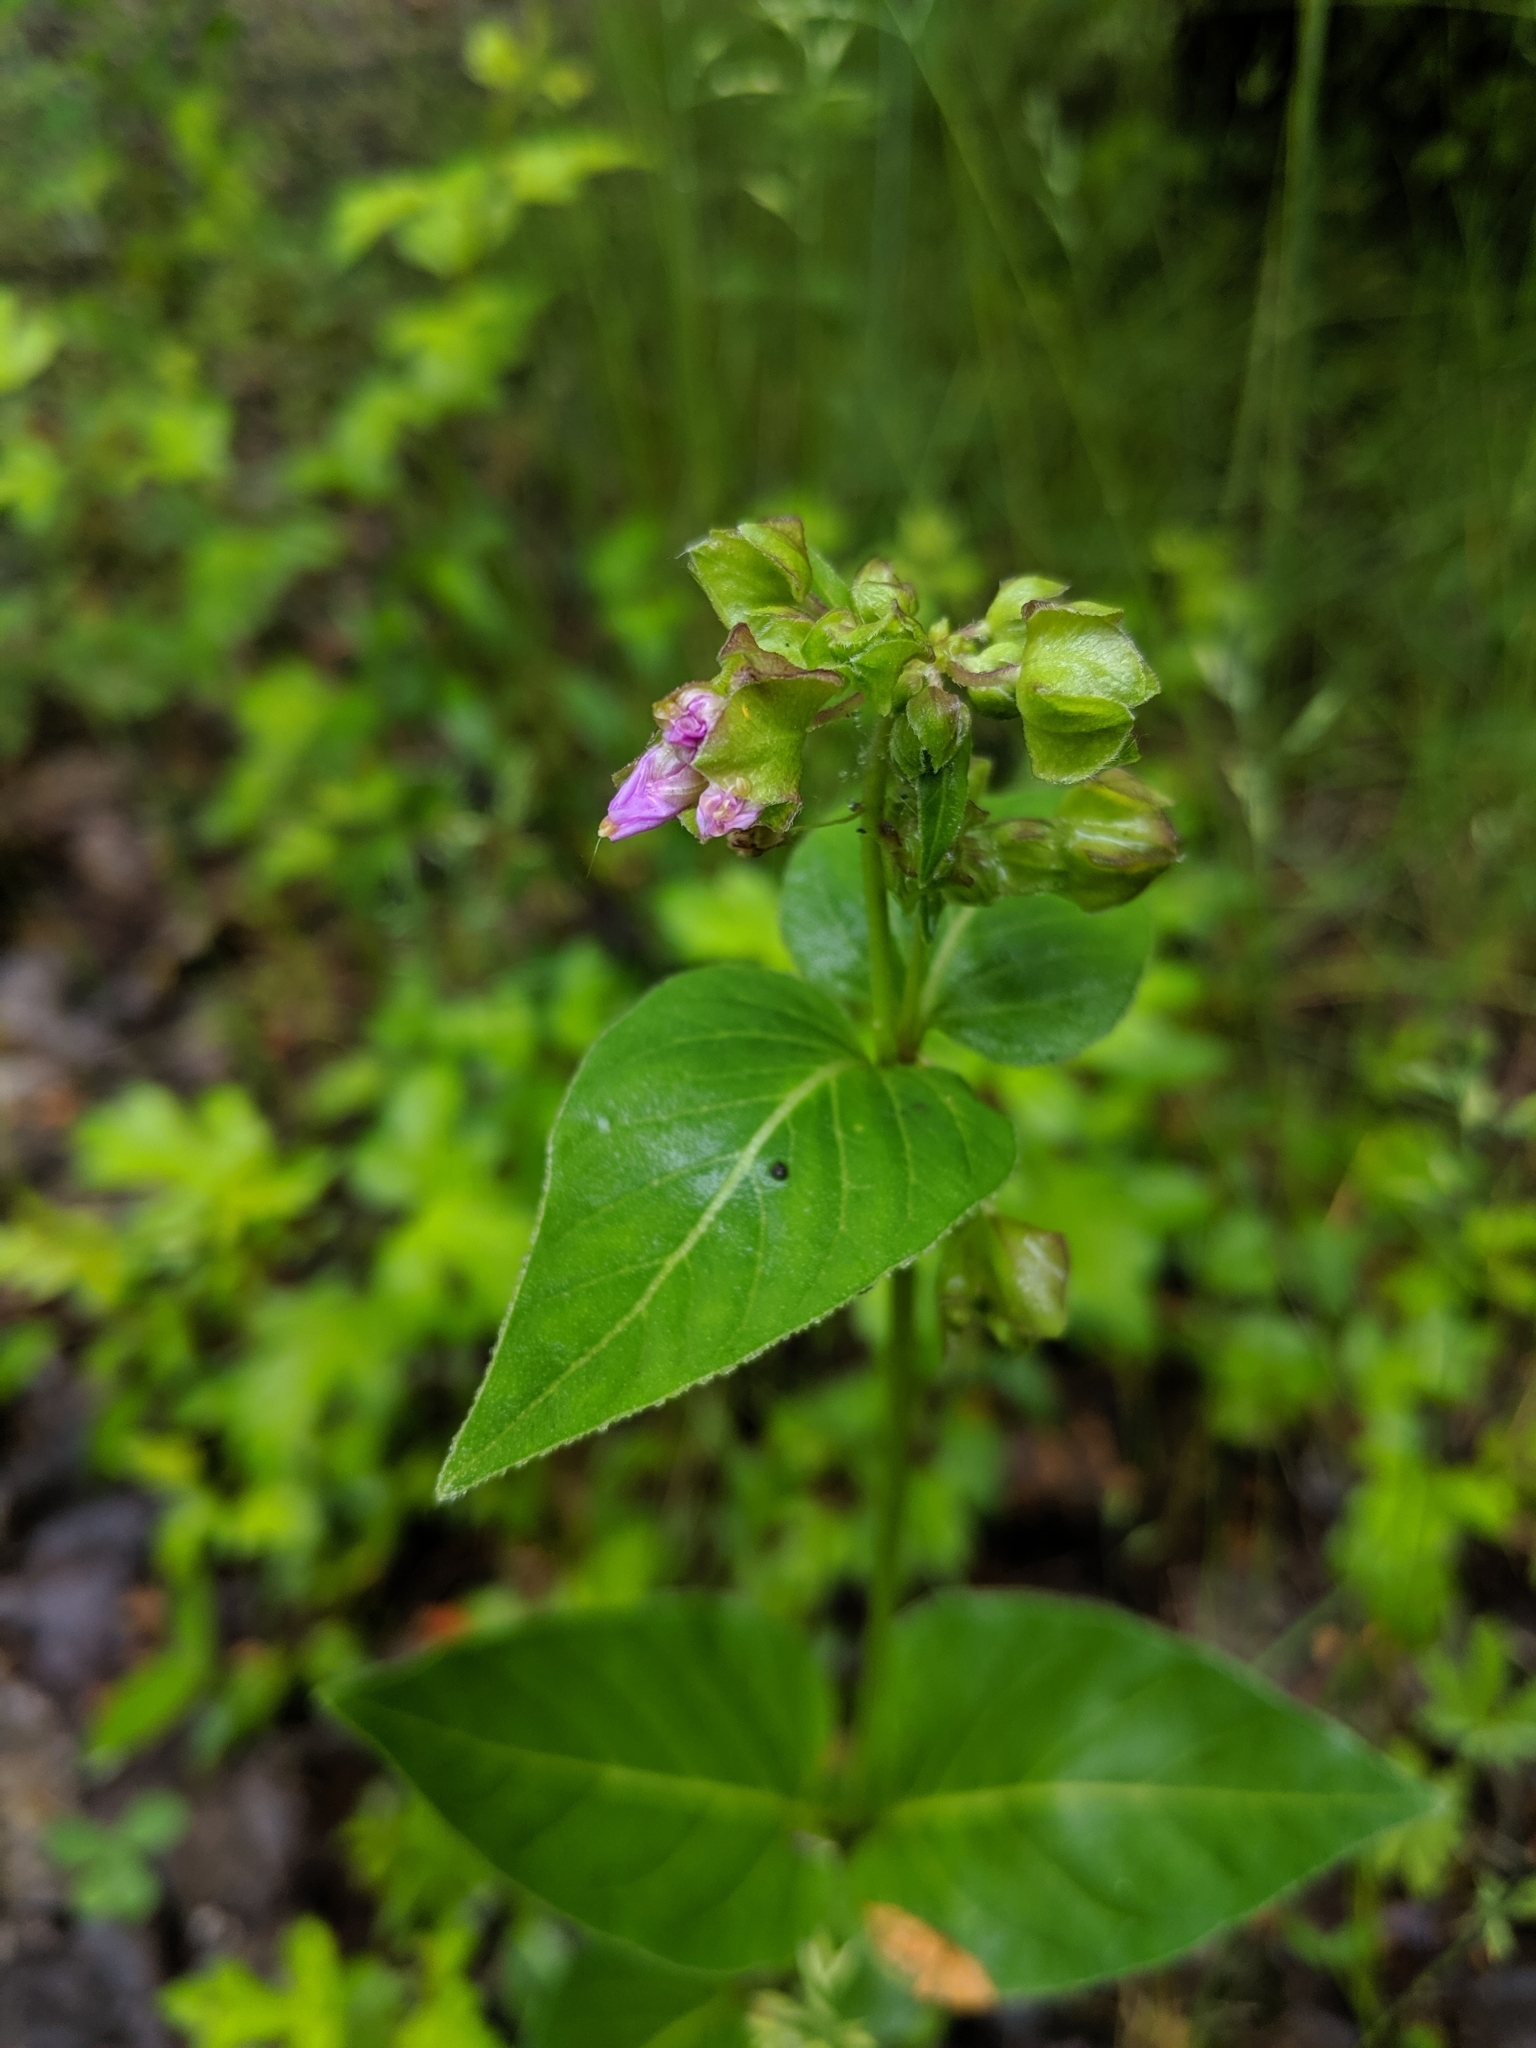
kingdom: Plantae
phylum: Tracheophyta
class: Magnoliopsida
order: Caryophyllales
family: Nyctaginaceae
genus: Mirabilis
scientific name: Mirabilis nyctaginea
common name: Umbrella wort
